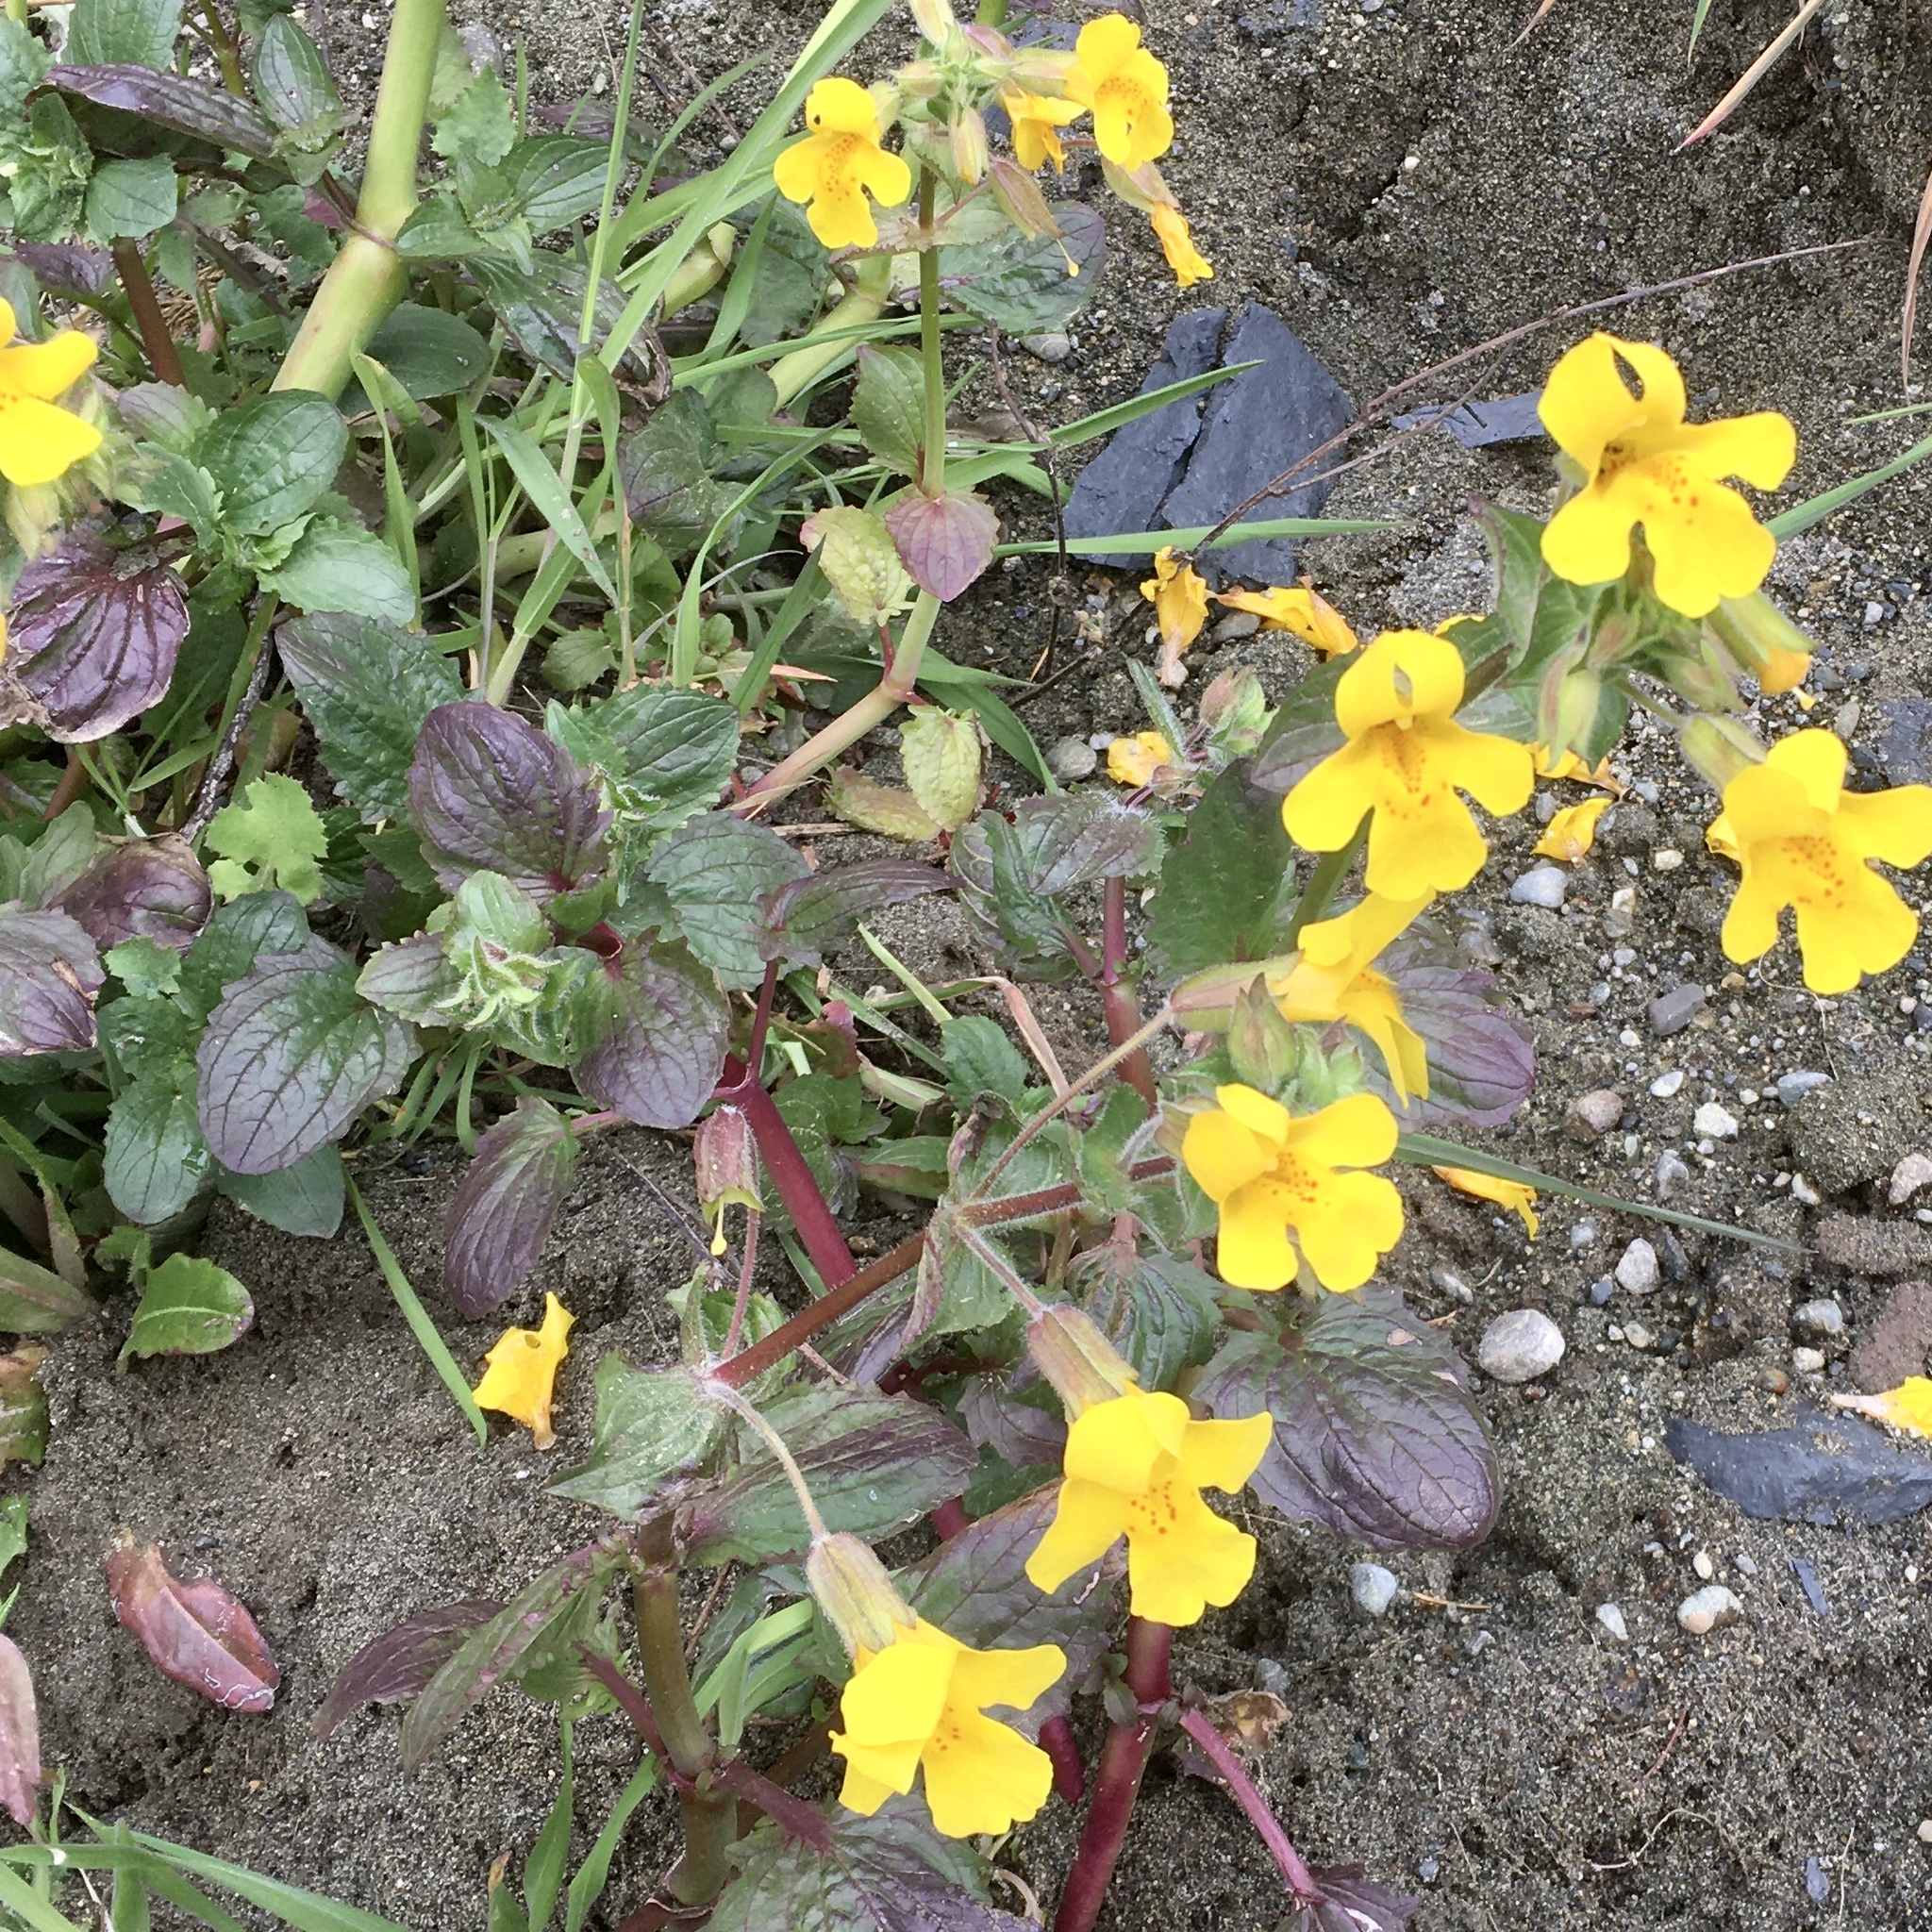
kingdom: Plantae
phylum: Tracheophyta
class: Magnoliopsida
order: Lamiales
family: Phrymaceae
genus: Erythranthe
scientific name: Erythranthe guttata
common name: Monkeyflower
